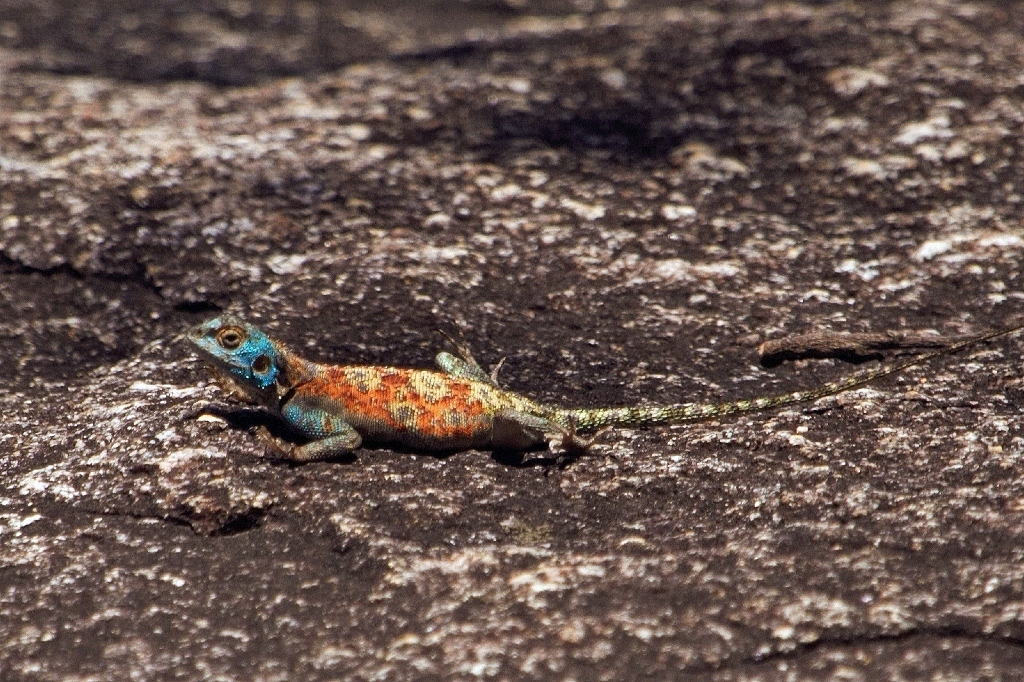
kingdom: Animalia
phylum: Chordata
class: Squamata
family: Agamidae
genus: Agama
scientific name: Agama kirkii
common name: Kirk's rock agama
